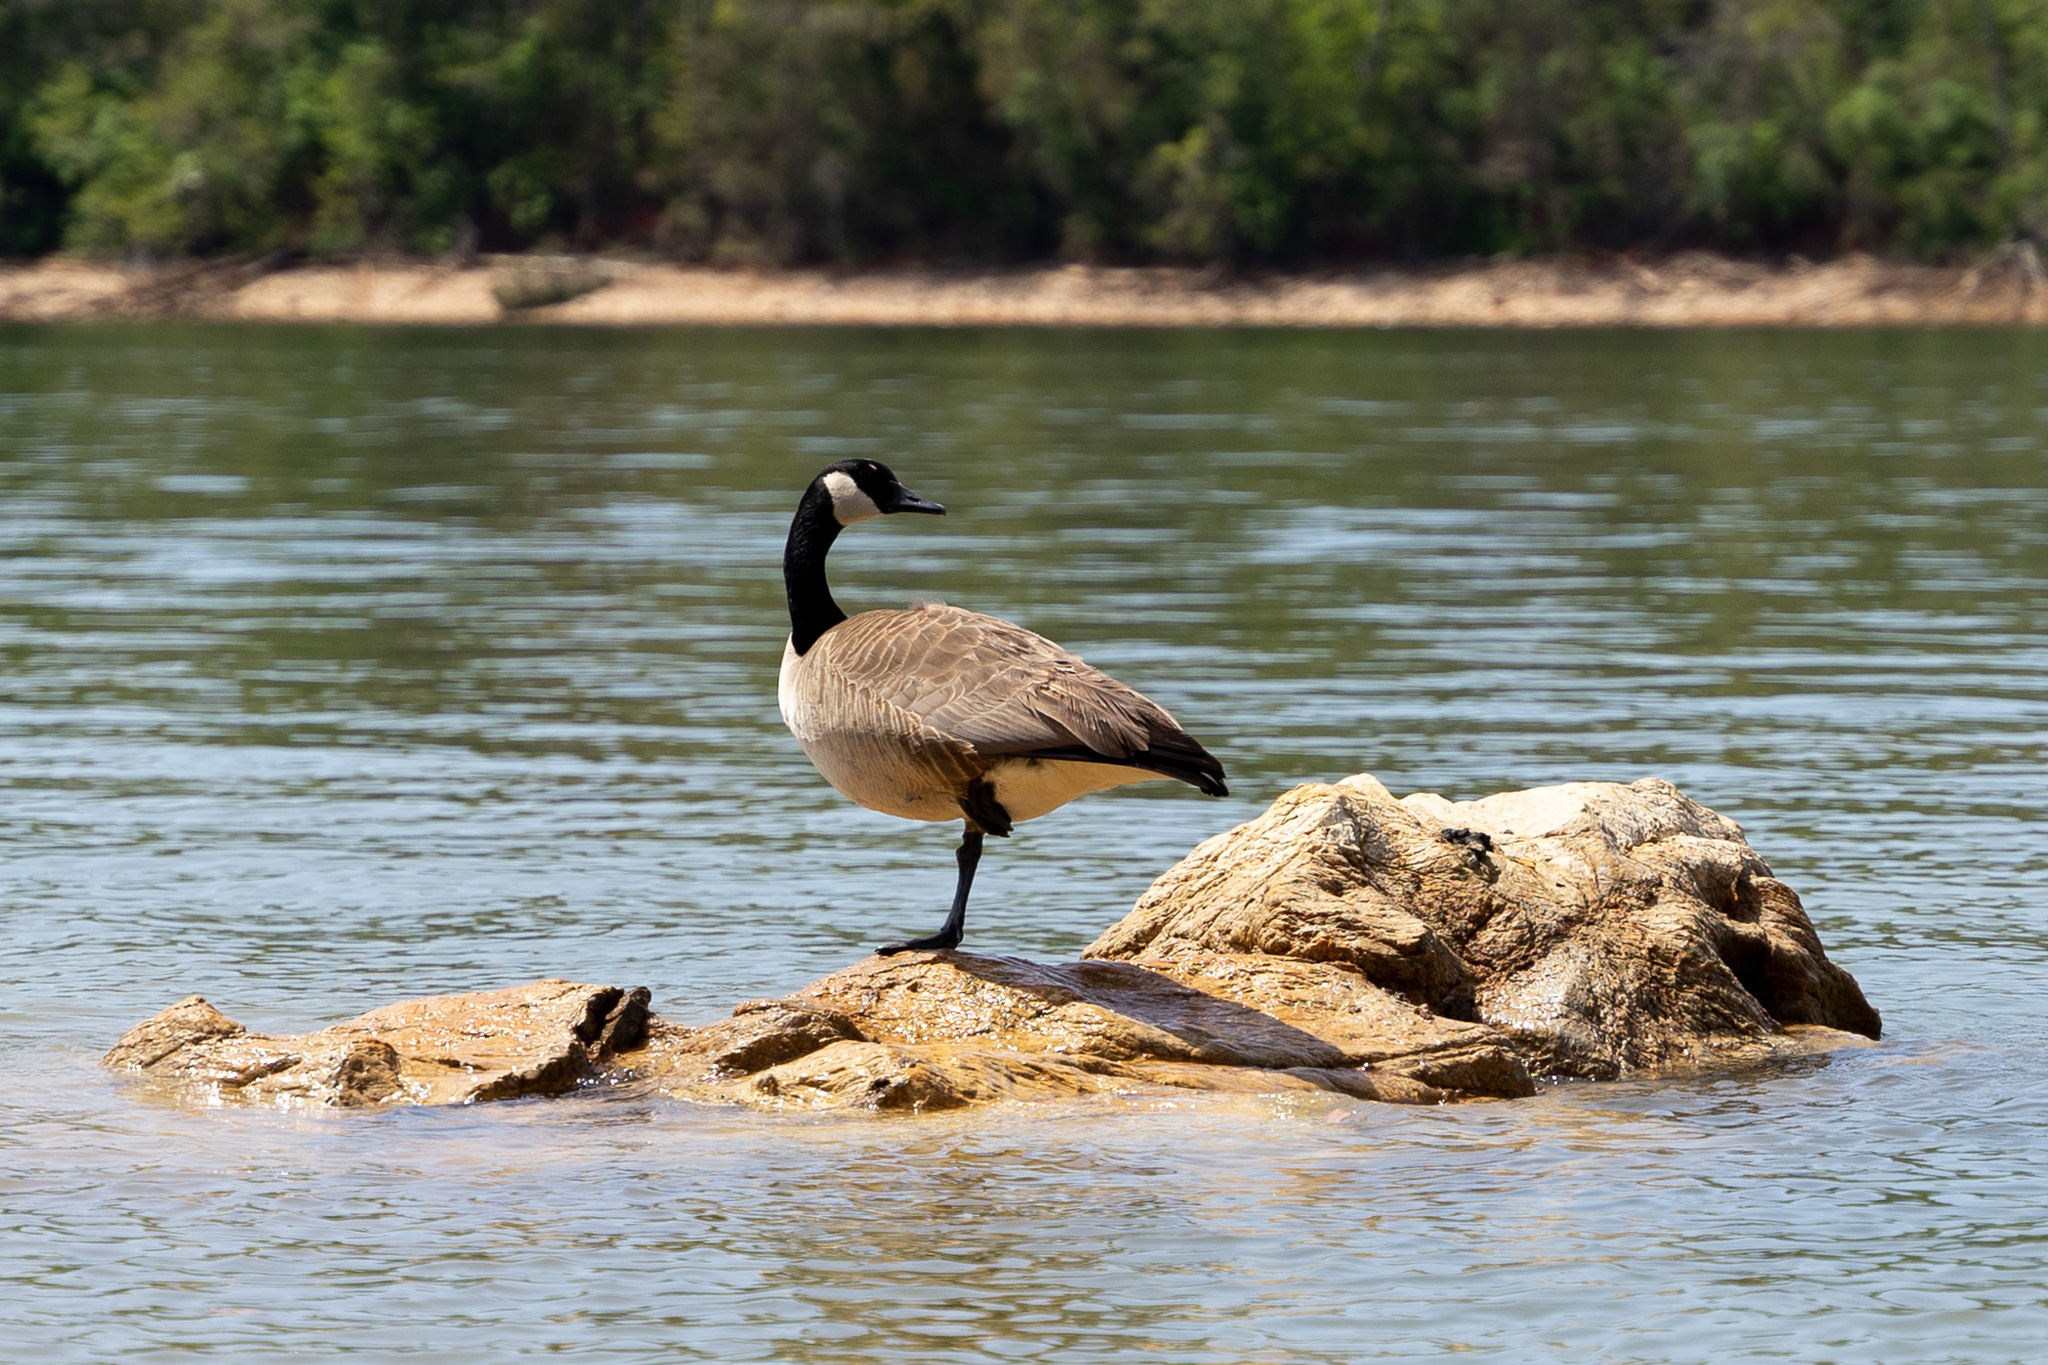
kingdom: Animalia
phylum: Chordata
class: Aves
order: Anseriformes
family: Anatidae
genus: Branta
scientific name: Branta canadensis
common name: Canada goose
